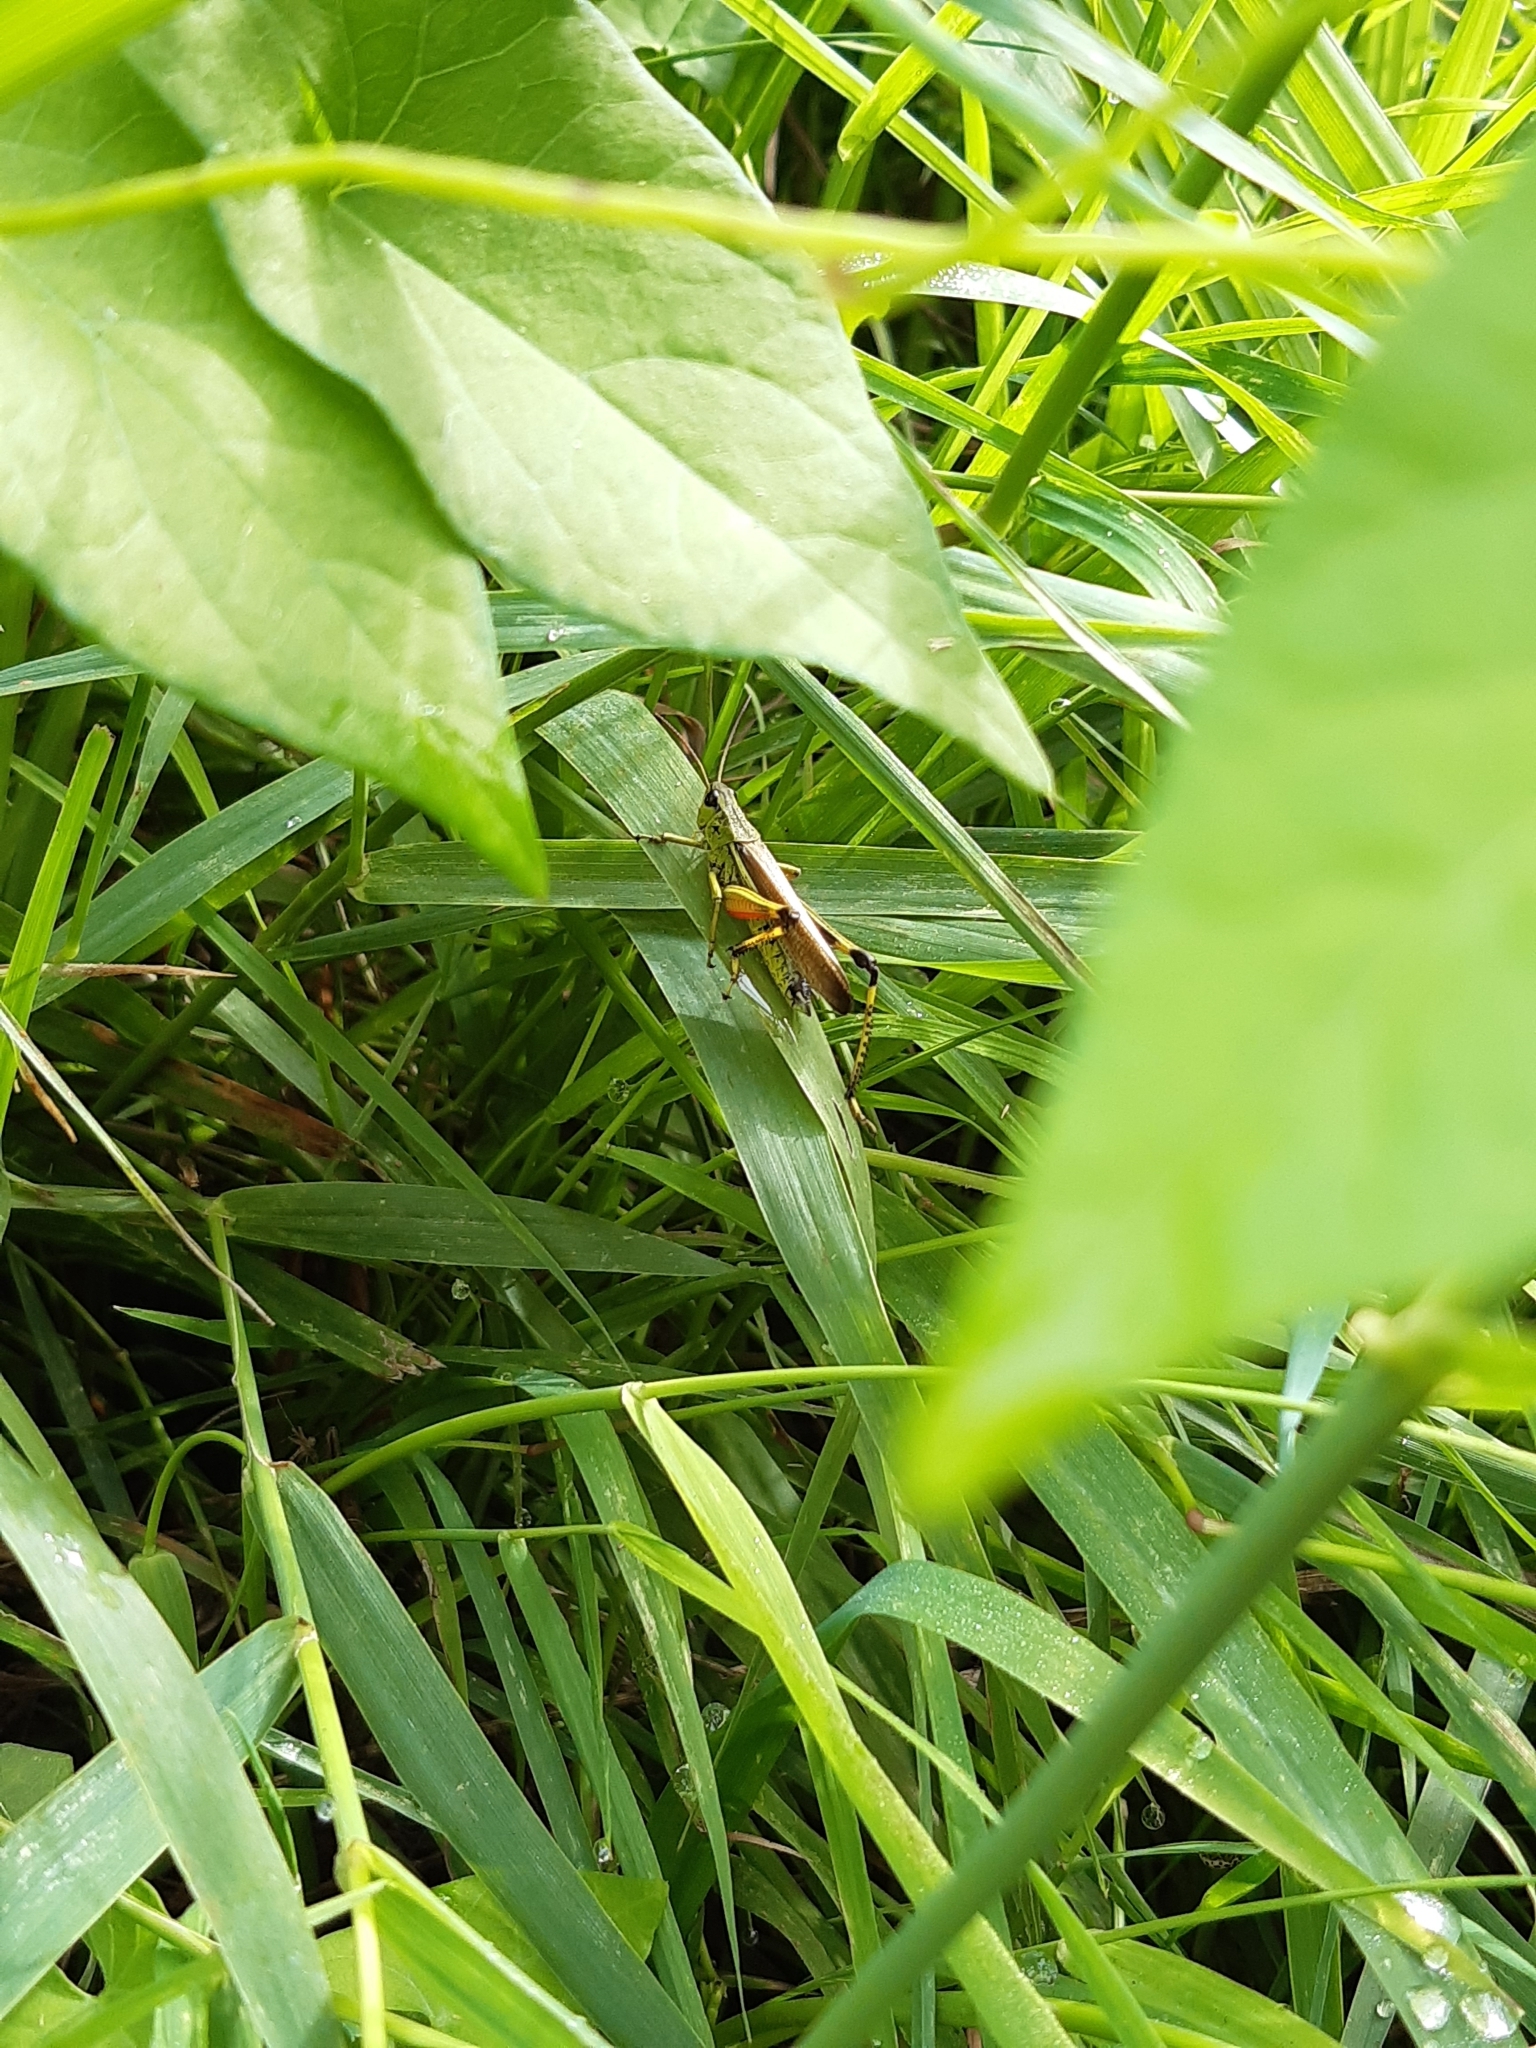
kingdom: Animalia
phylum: Arthropoda
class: Insecta
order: Orthoptera
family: Acrididae
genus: Stethophyma
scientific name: Stethophyma grossum
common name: Large marsh grasshopper
